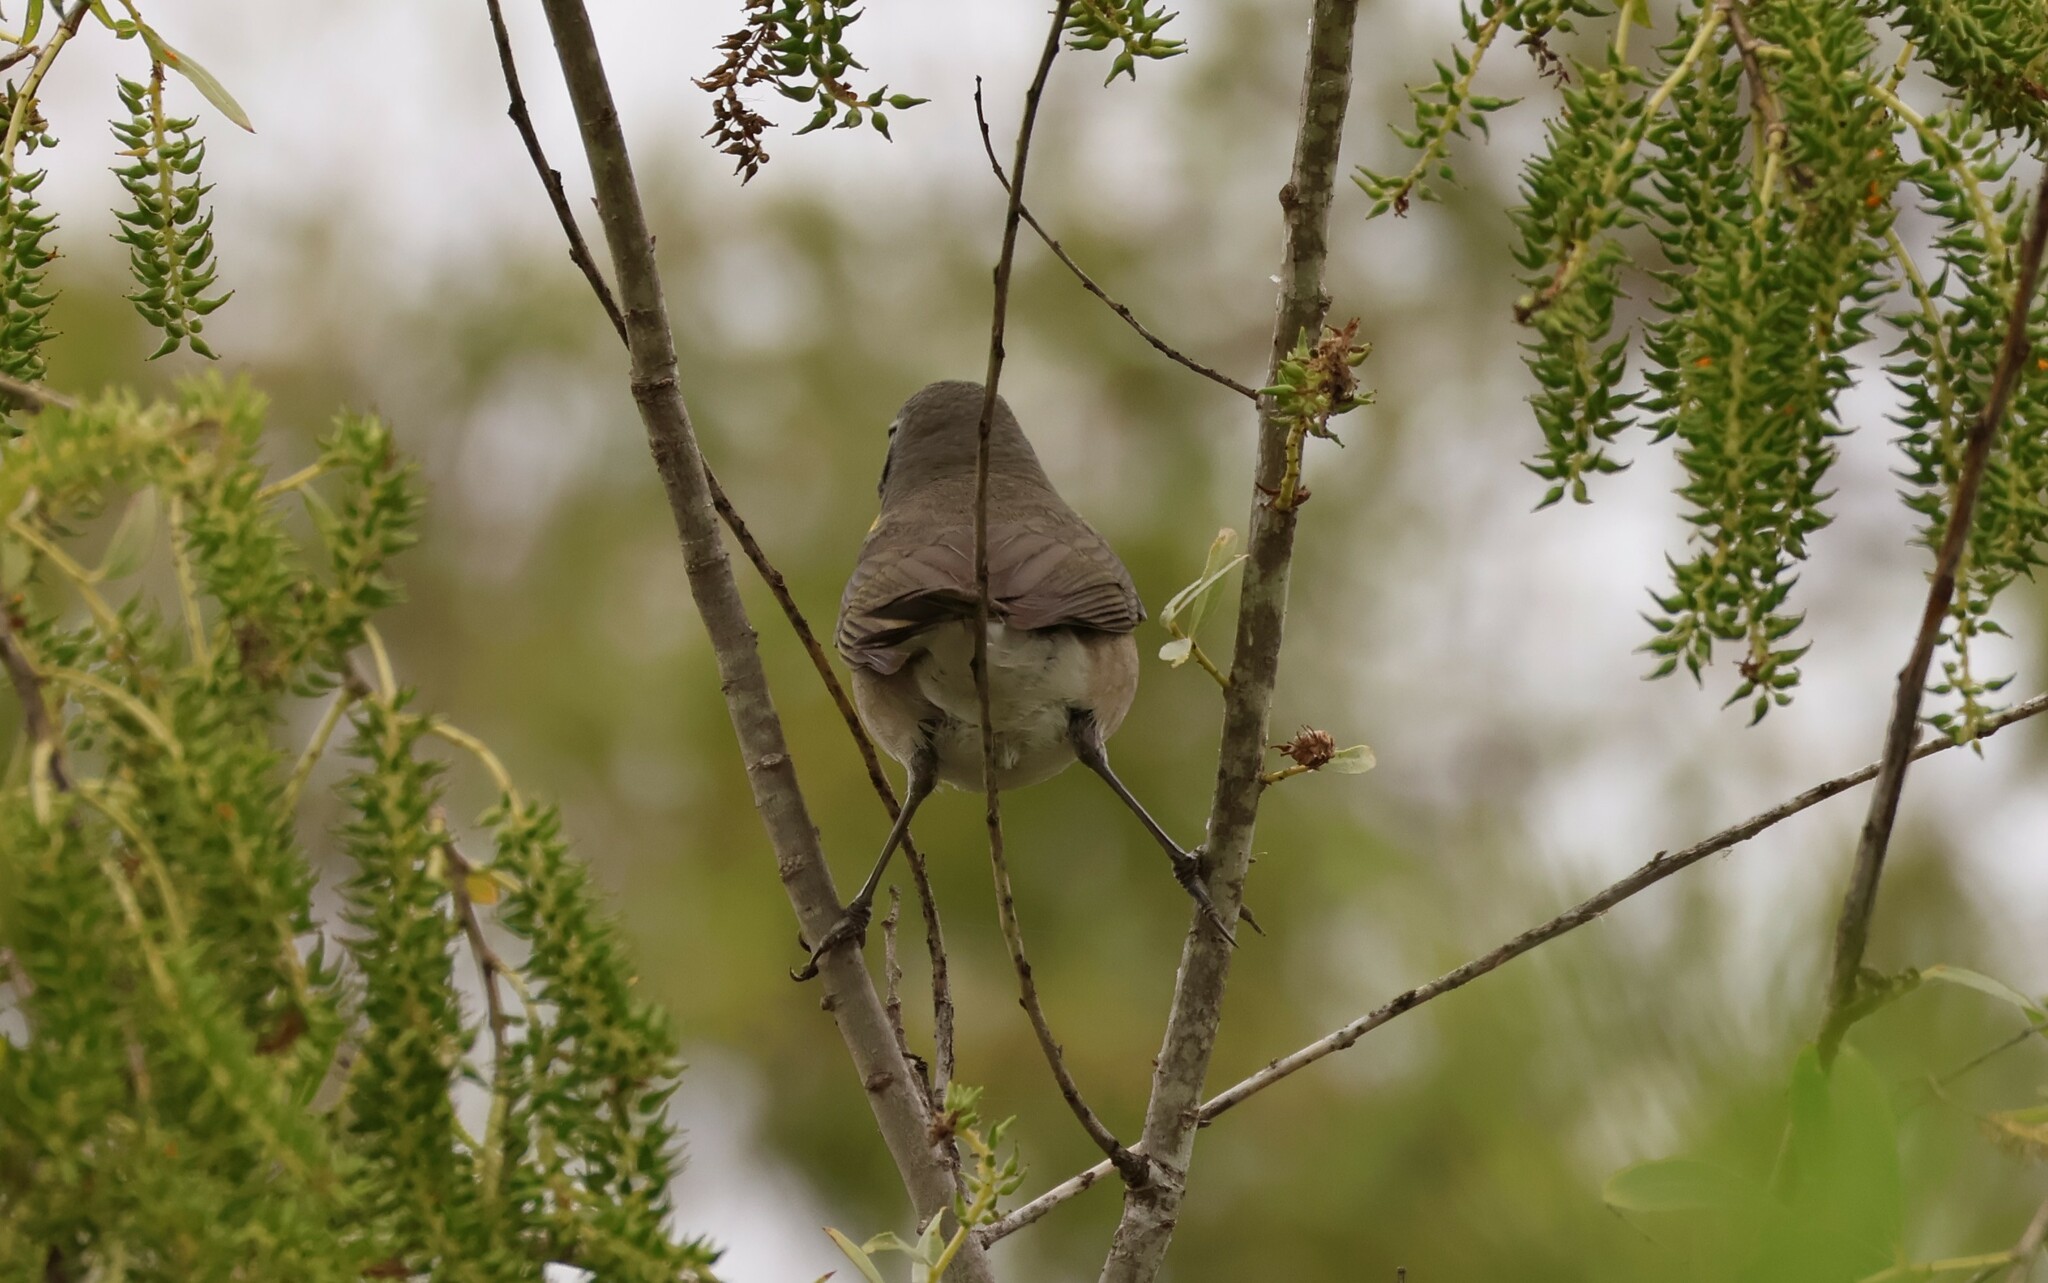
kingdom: Animalia
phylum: Chordata
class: Aves
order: Passeriformes
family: Parulidae
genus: Icteria
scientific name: Icteria virens
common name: Yellow-breasted chat
